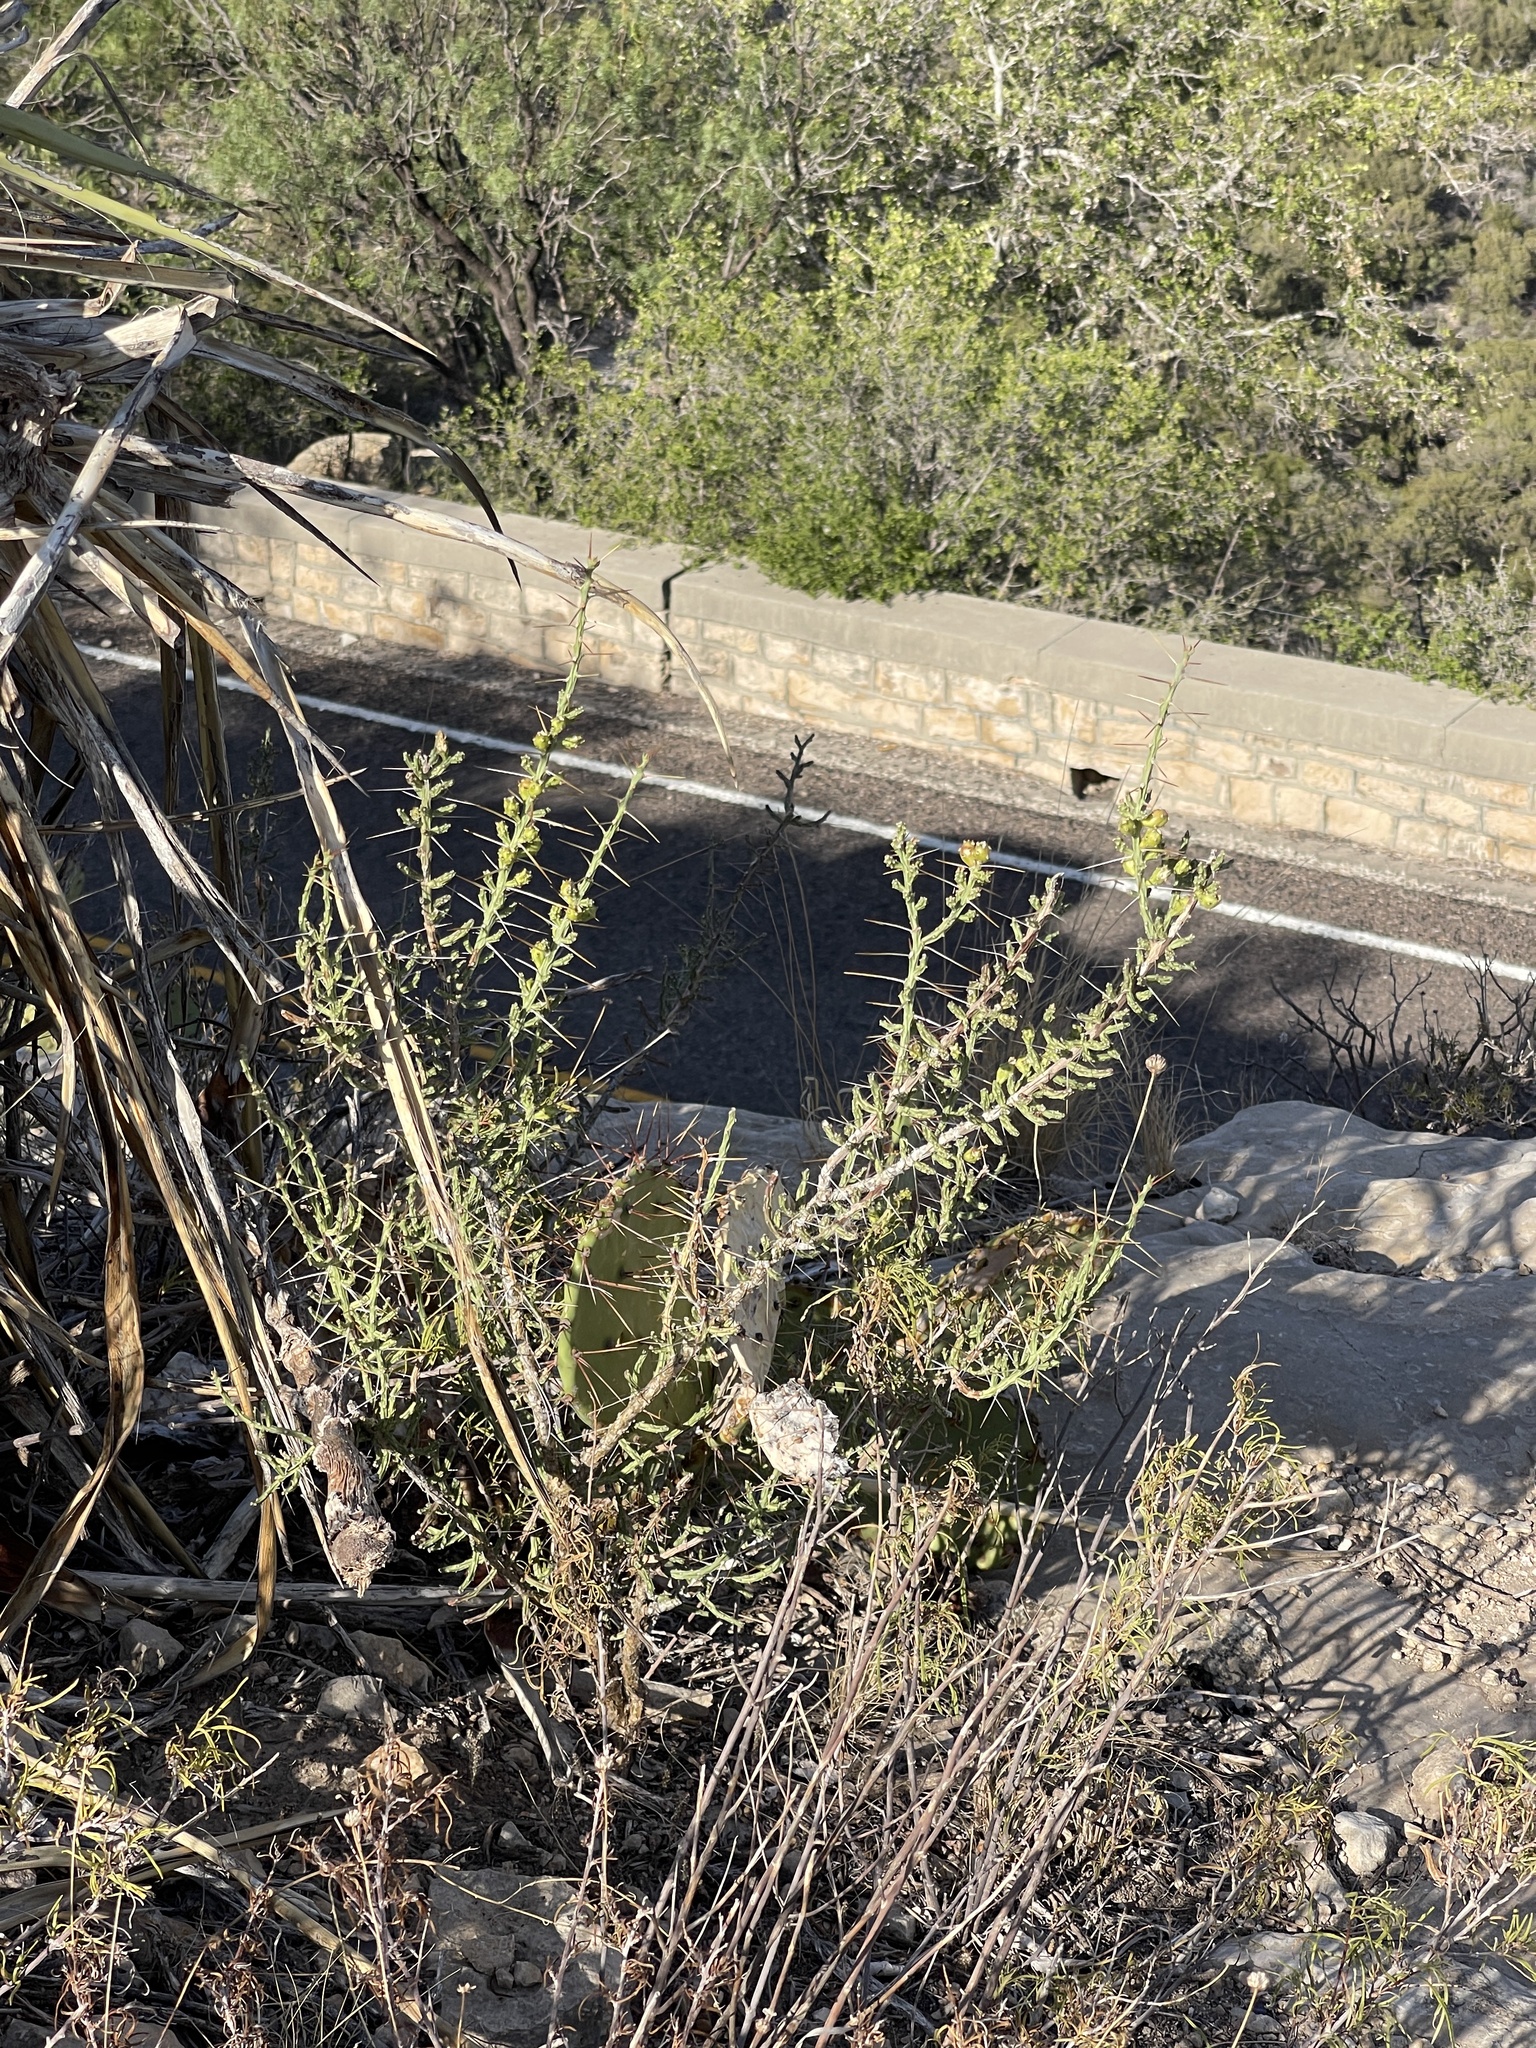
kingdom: Plantae
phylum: Tracheophyta
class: Magnoliopsida
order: Caryophyllales
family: Cactaceae
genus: Cylindropuntia
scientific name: Cylindropuntia leptocaulis
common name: Christmas cactus
